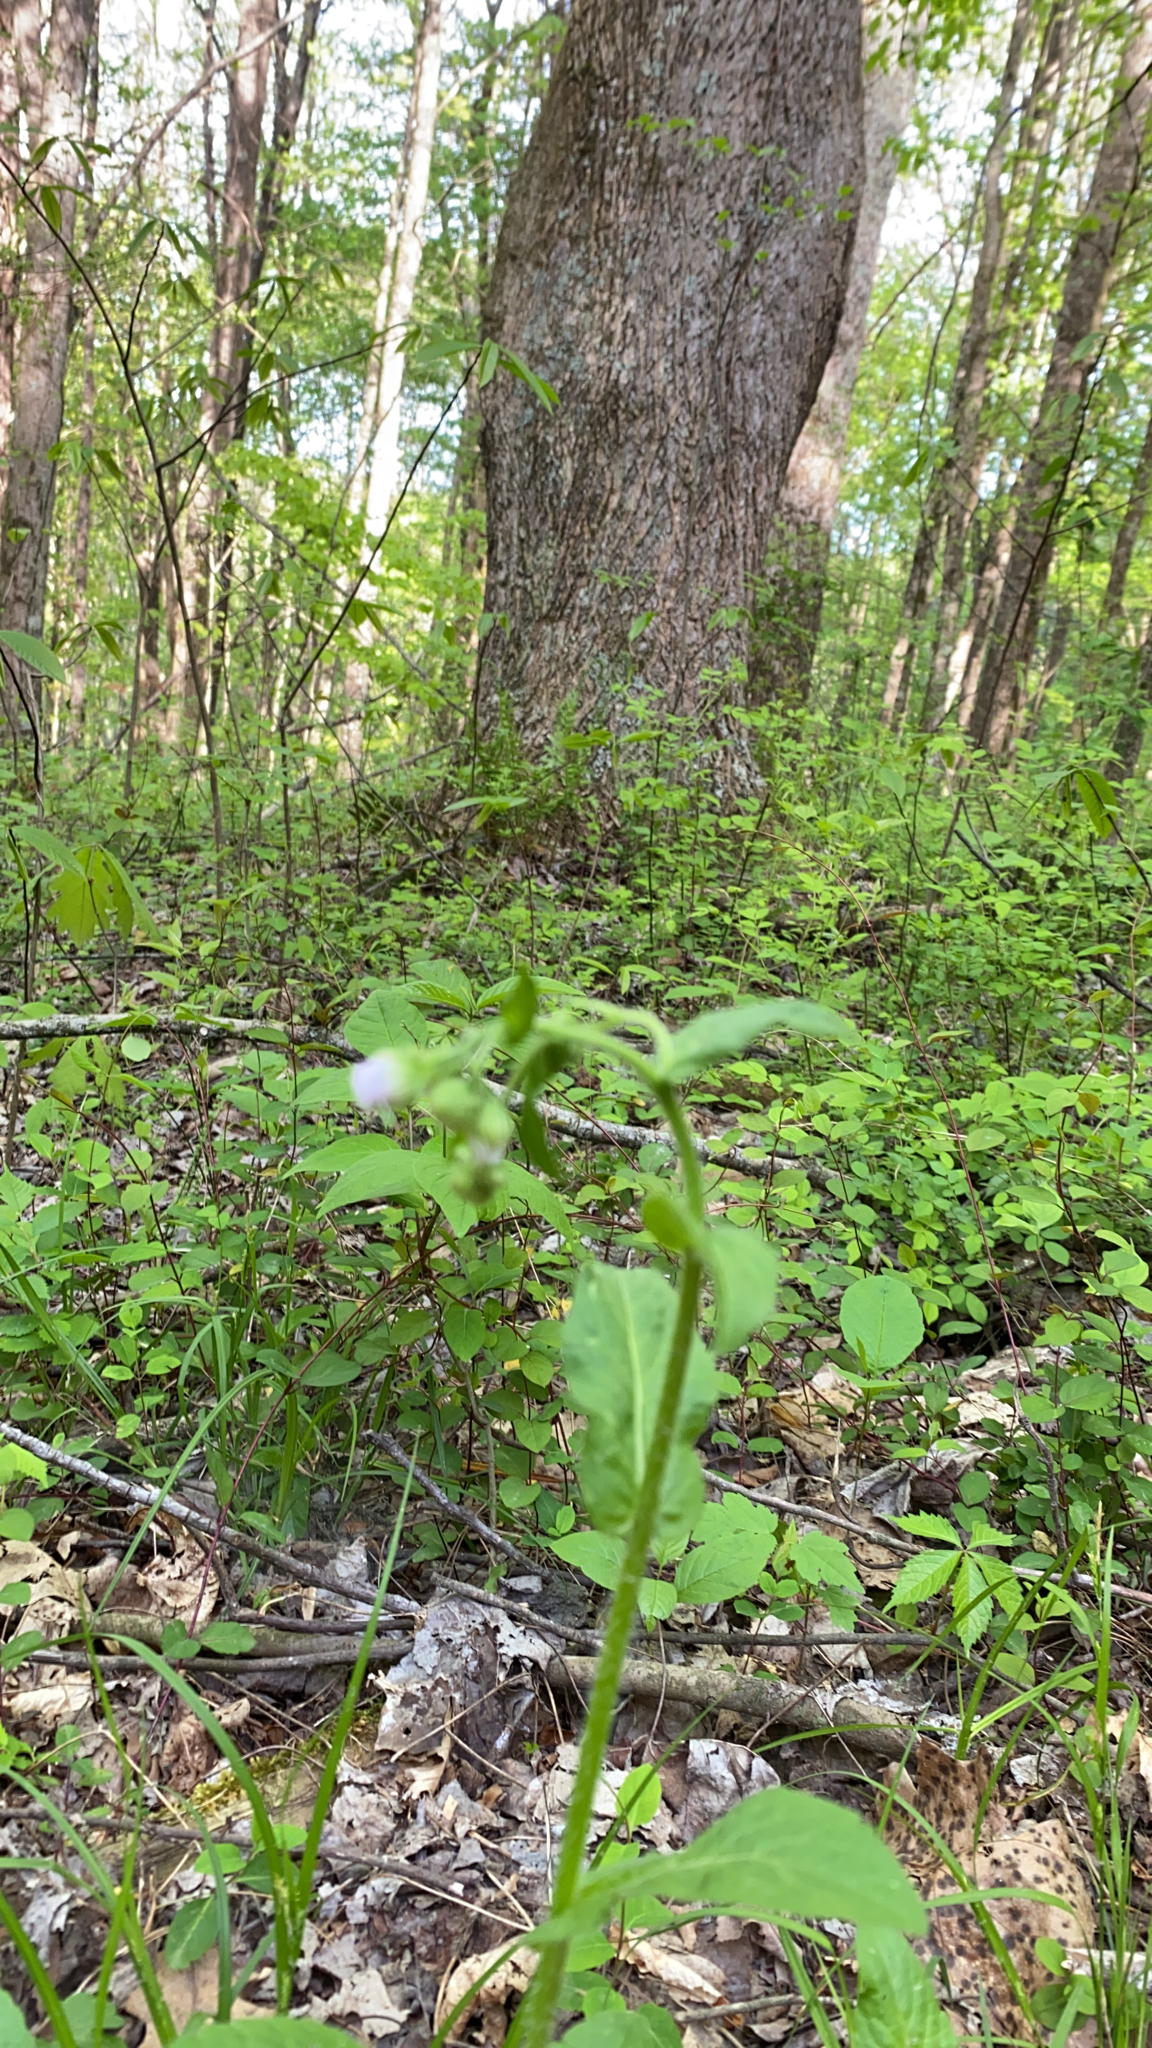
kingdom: Plantae
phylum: Tracheophyta
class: Magnoliopsida
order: Boraginales
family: Boraginaceae
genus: Andersonglossum
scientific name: Andersonglossum virginianum
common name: Wild comfrey
